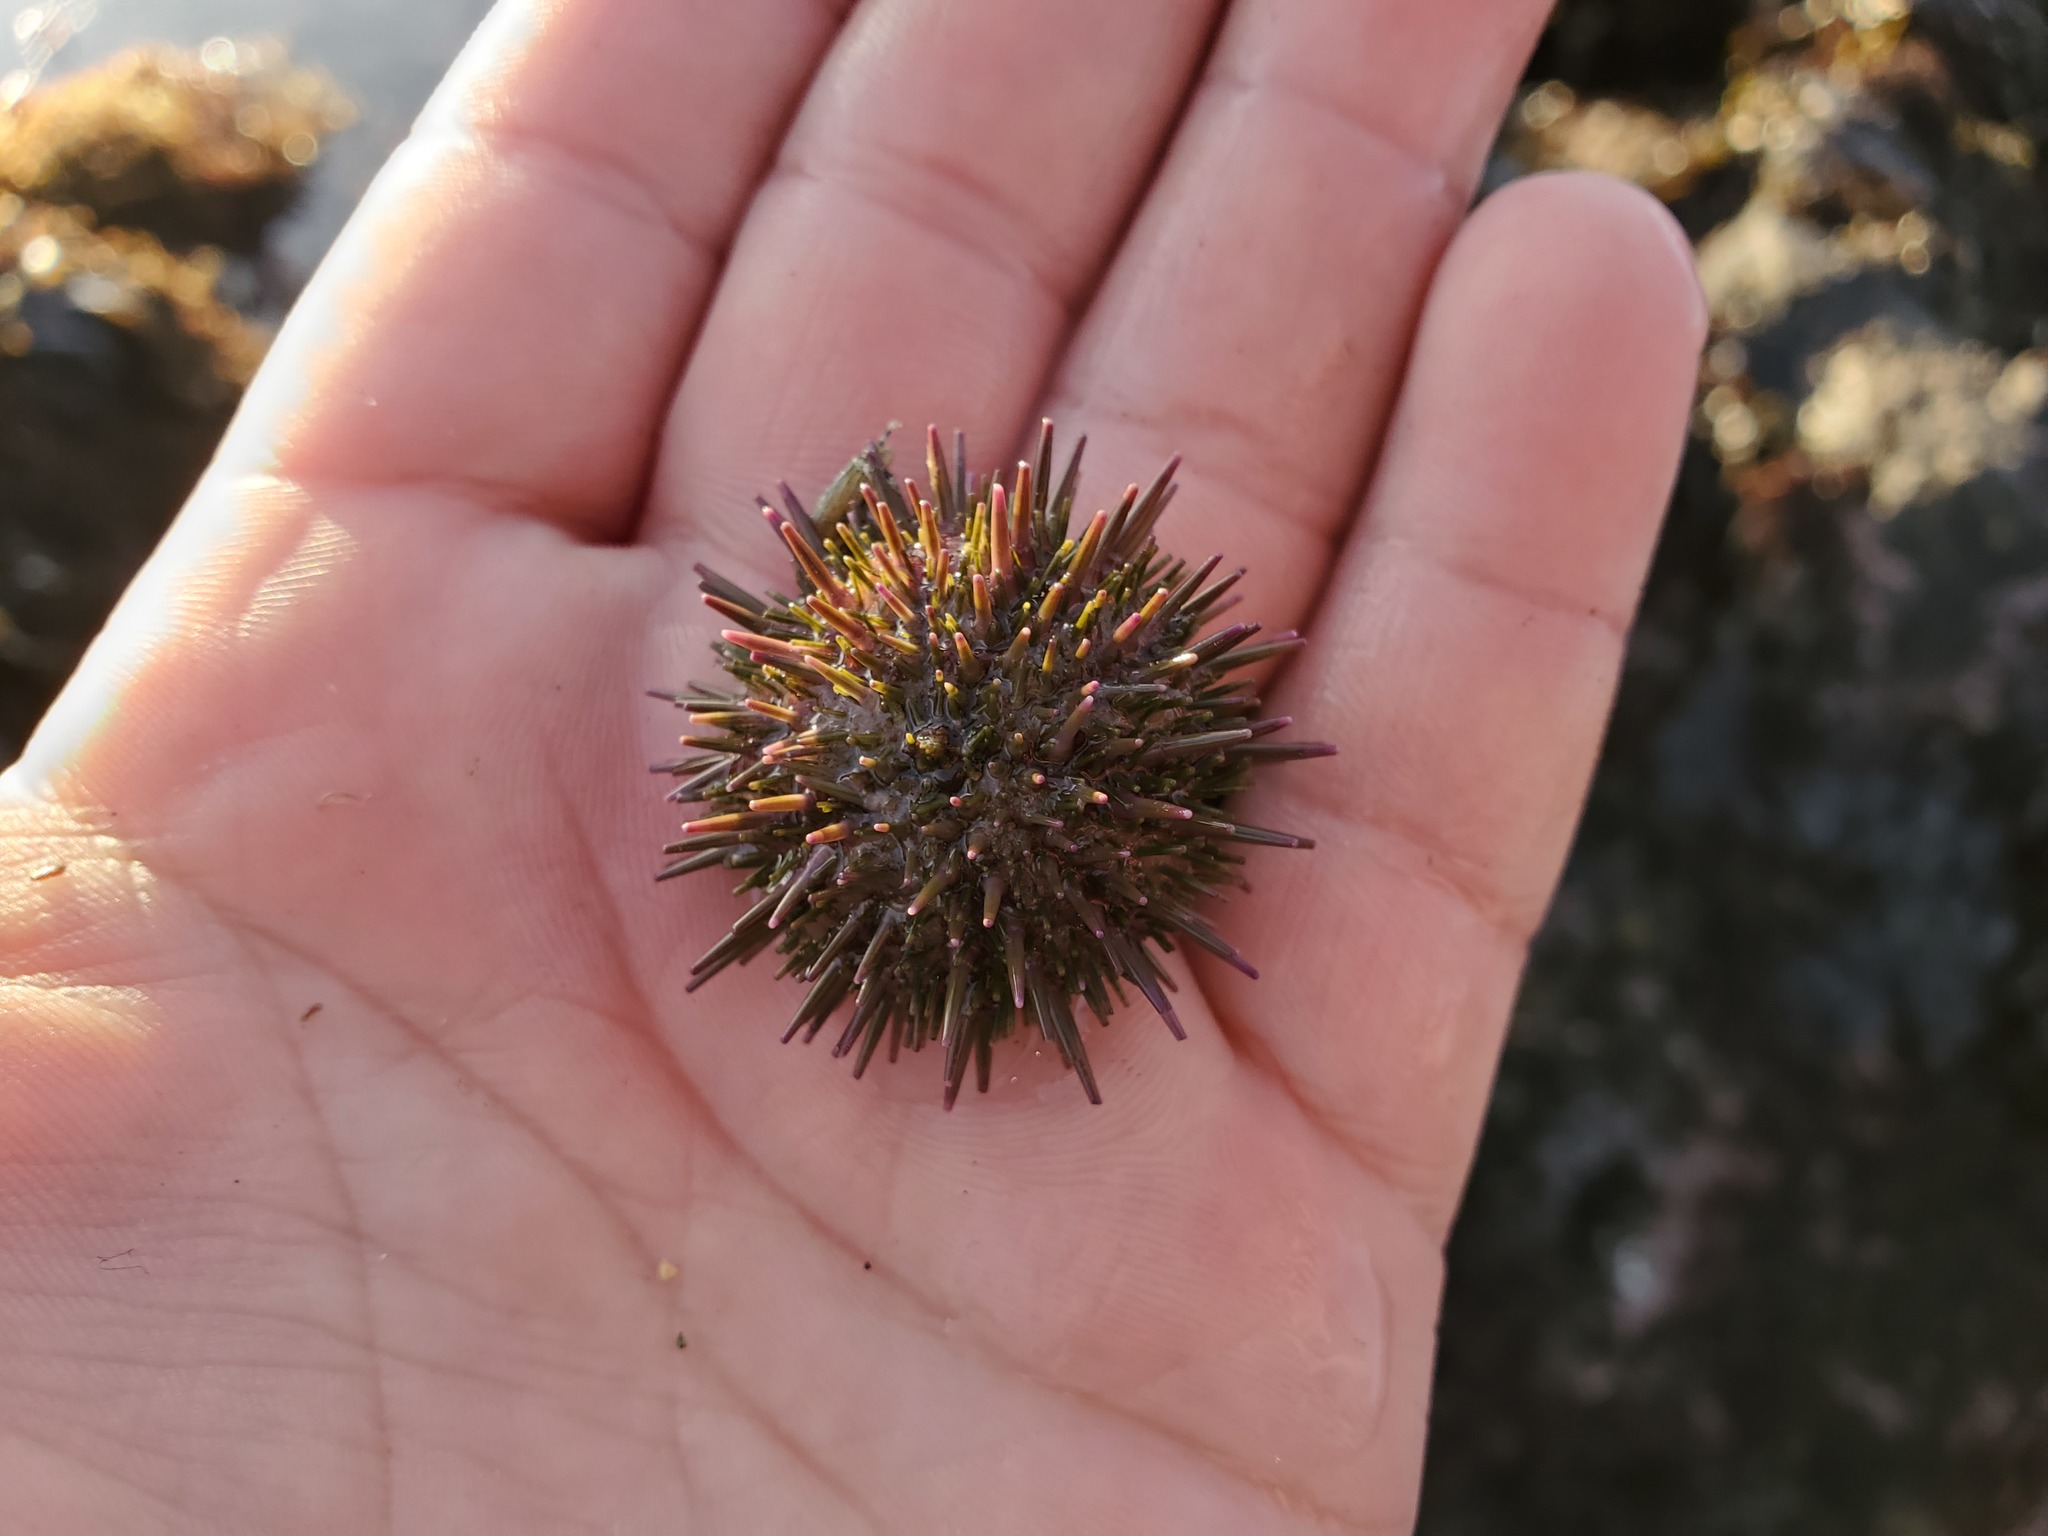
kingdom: Animalia
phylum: Echinodermata
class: Echinoidea
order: Camarodonta
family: Strongylocentrotidae
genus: Strongylocentrotus
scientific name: Strongylocentrotus purpuratus
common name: Purple sea urchin
